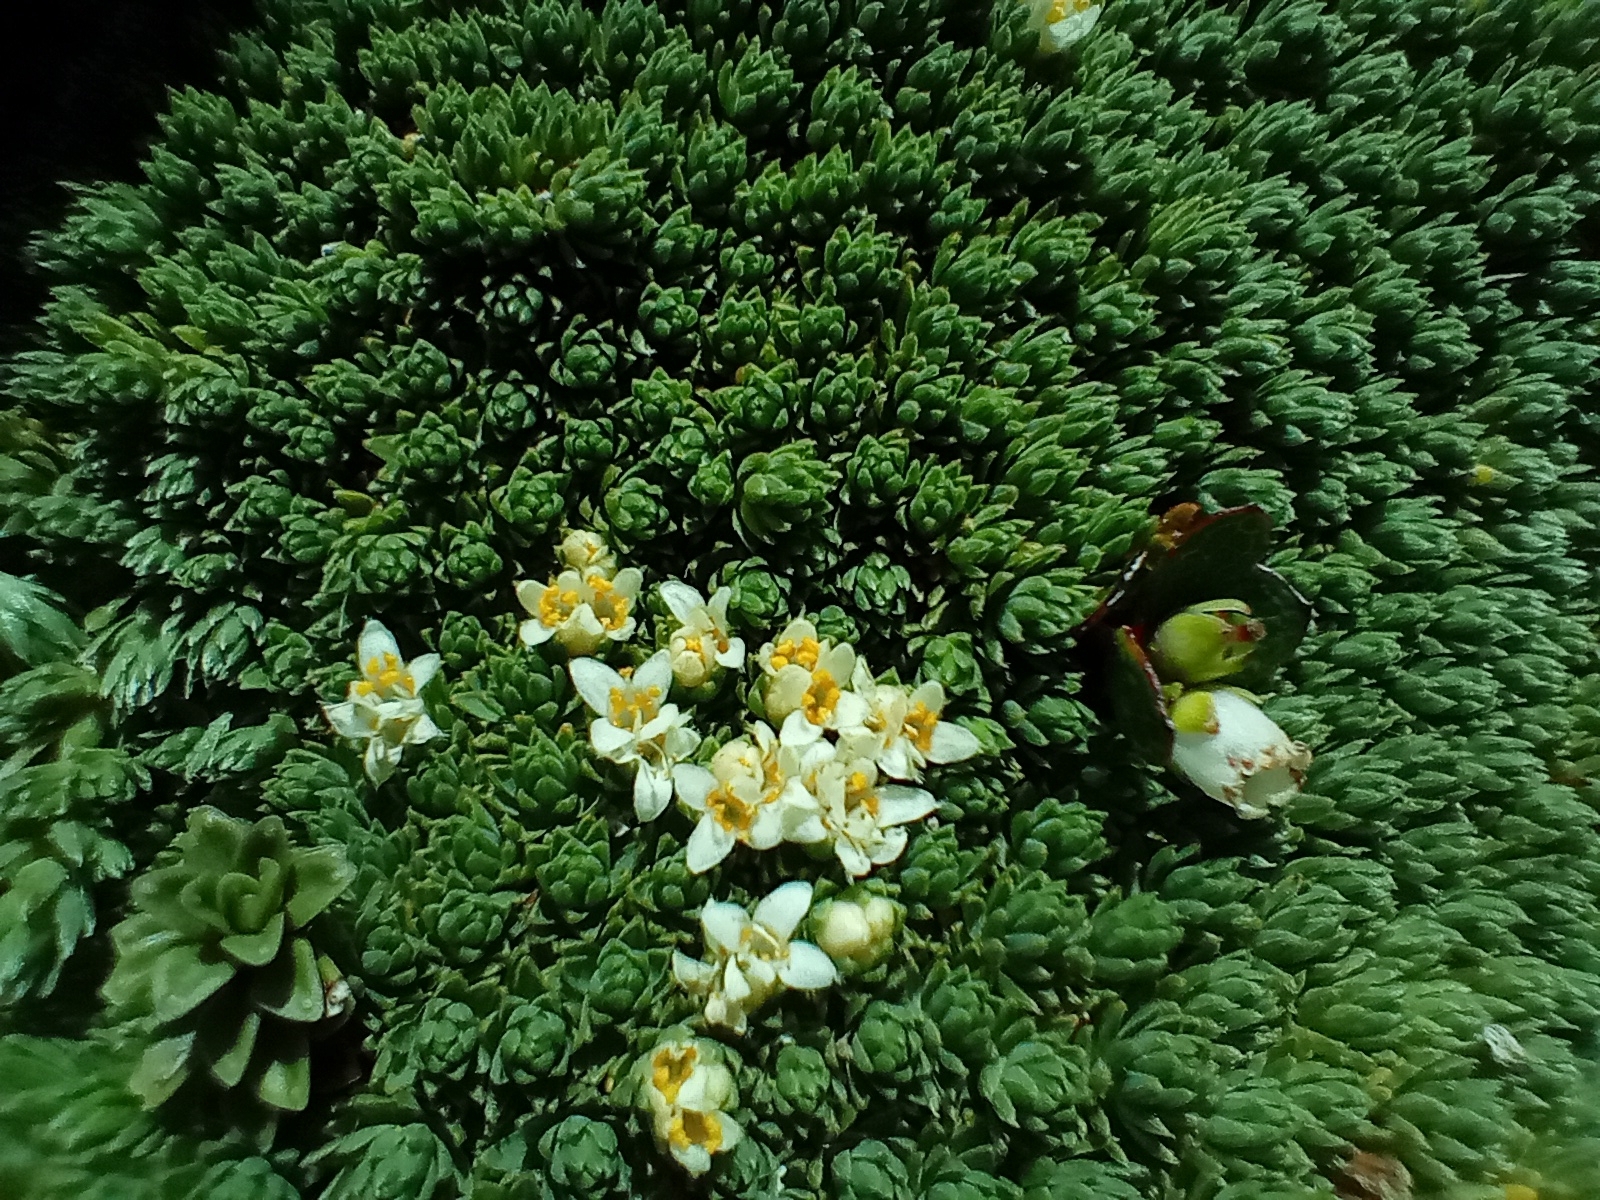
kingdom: Plantae
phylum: Tracheophyta
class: Magnoliopsida
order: Malvales
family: Thymelaeaceae
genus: Kelleria
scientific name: Kelleria croizatii
